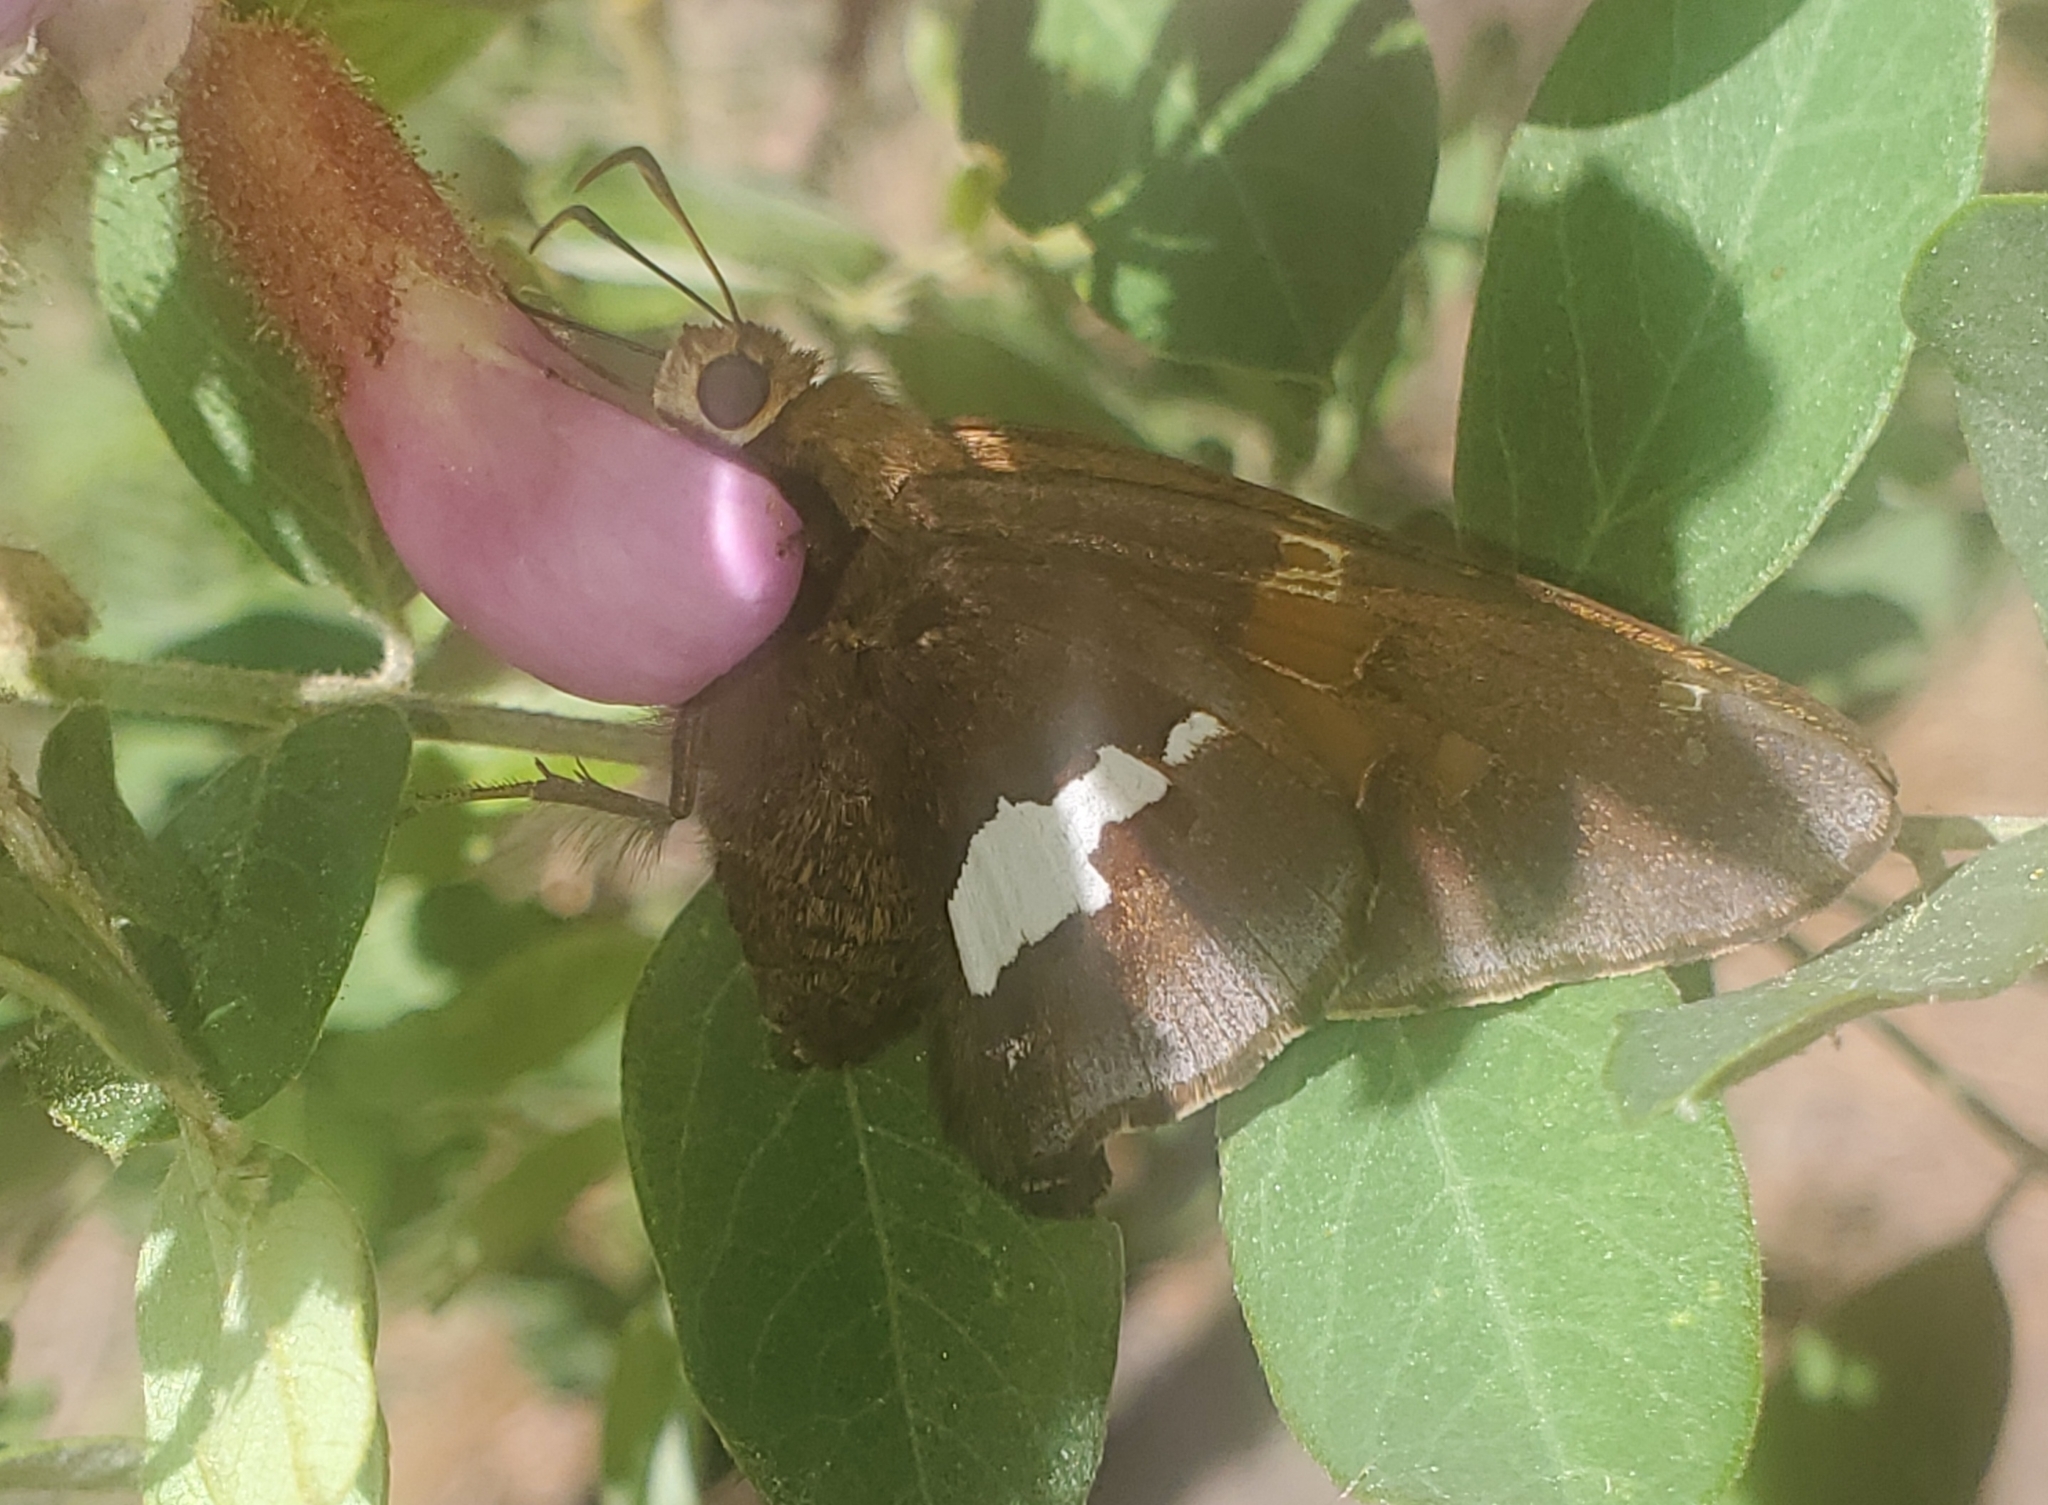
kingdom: Animalia
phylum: Arthropoda
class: Insecta
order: Lepidoptera
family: Hesperiidae
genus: Epargyreus
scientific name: Epargyreus clarus
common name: Silver-spotted skipper
